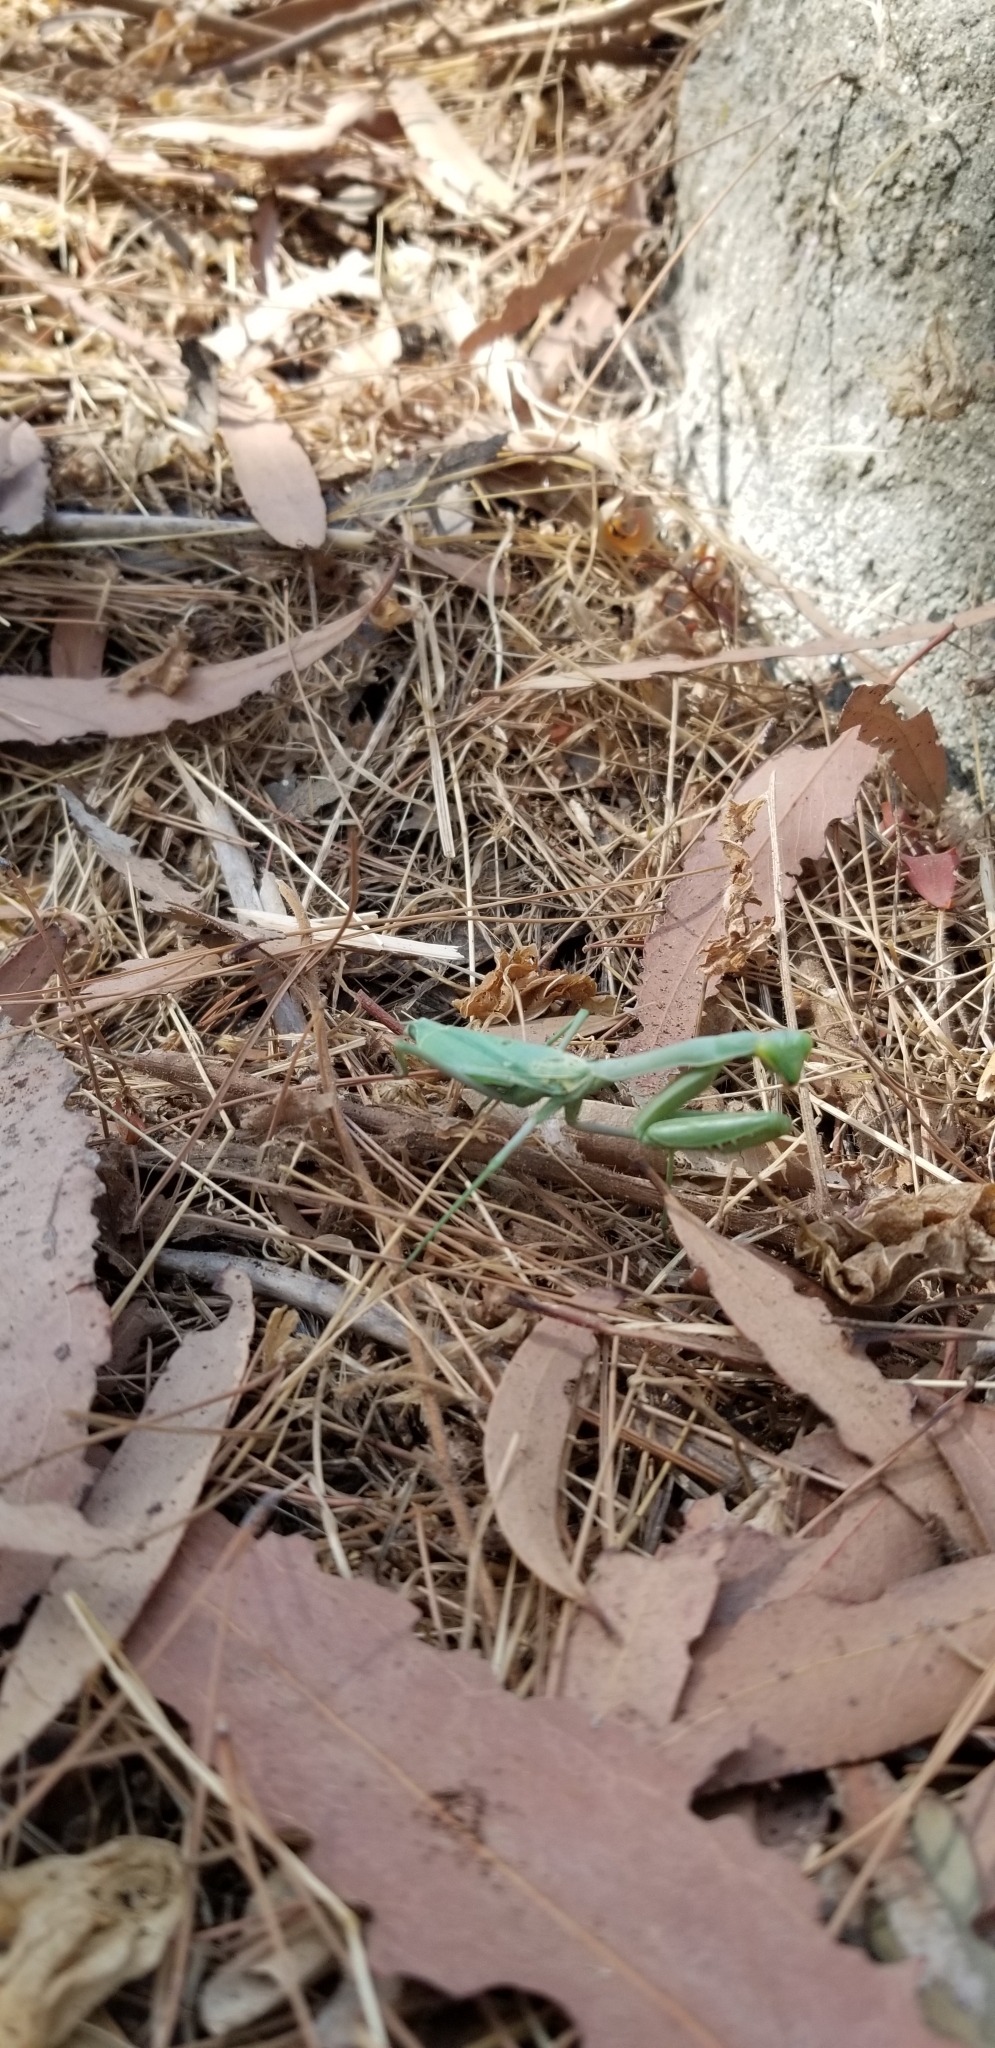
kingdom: Animalia
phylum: Arthropoda
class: Insecta
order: Mantodea
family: Mantidae
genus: Stagmomantis
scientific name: Stagmomantis limbata
